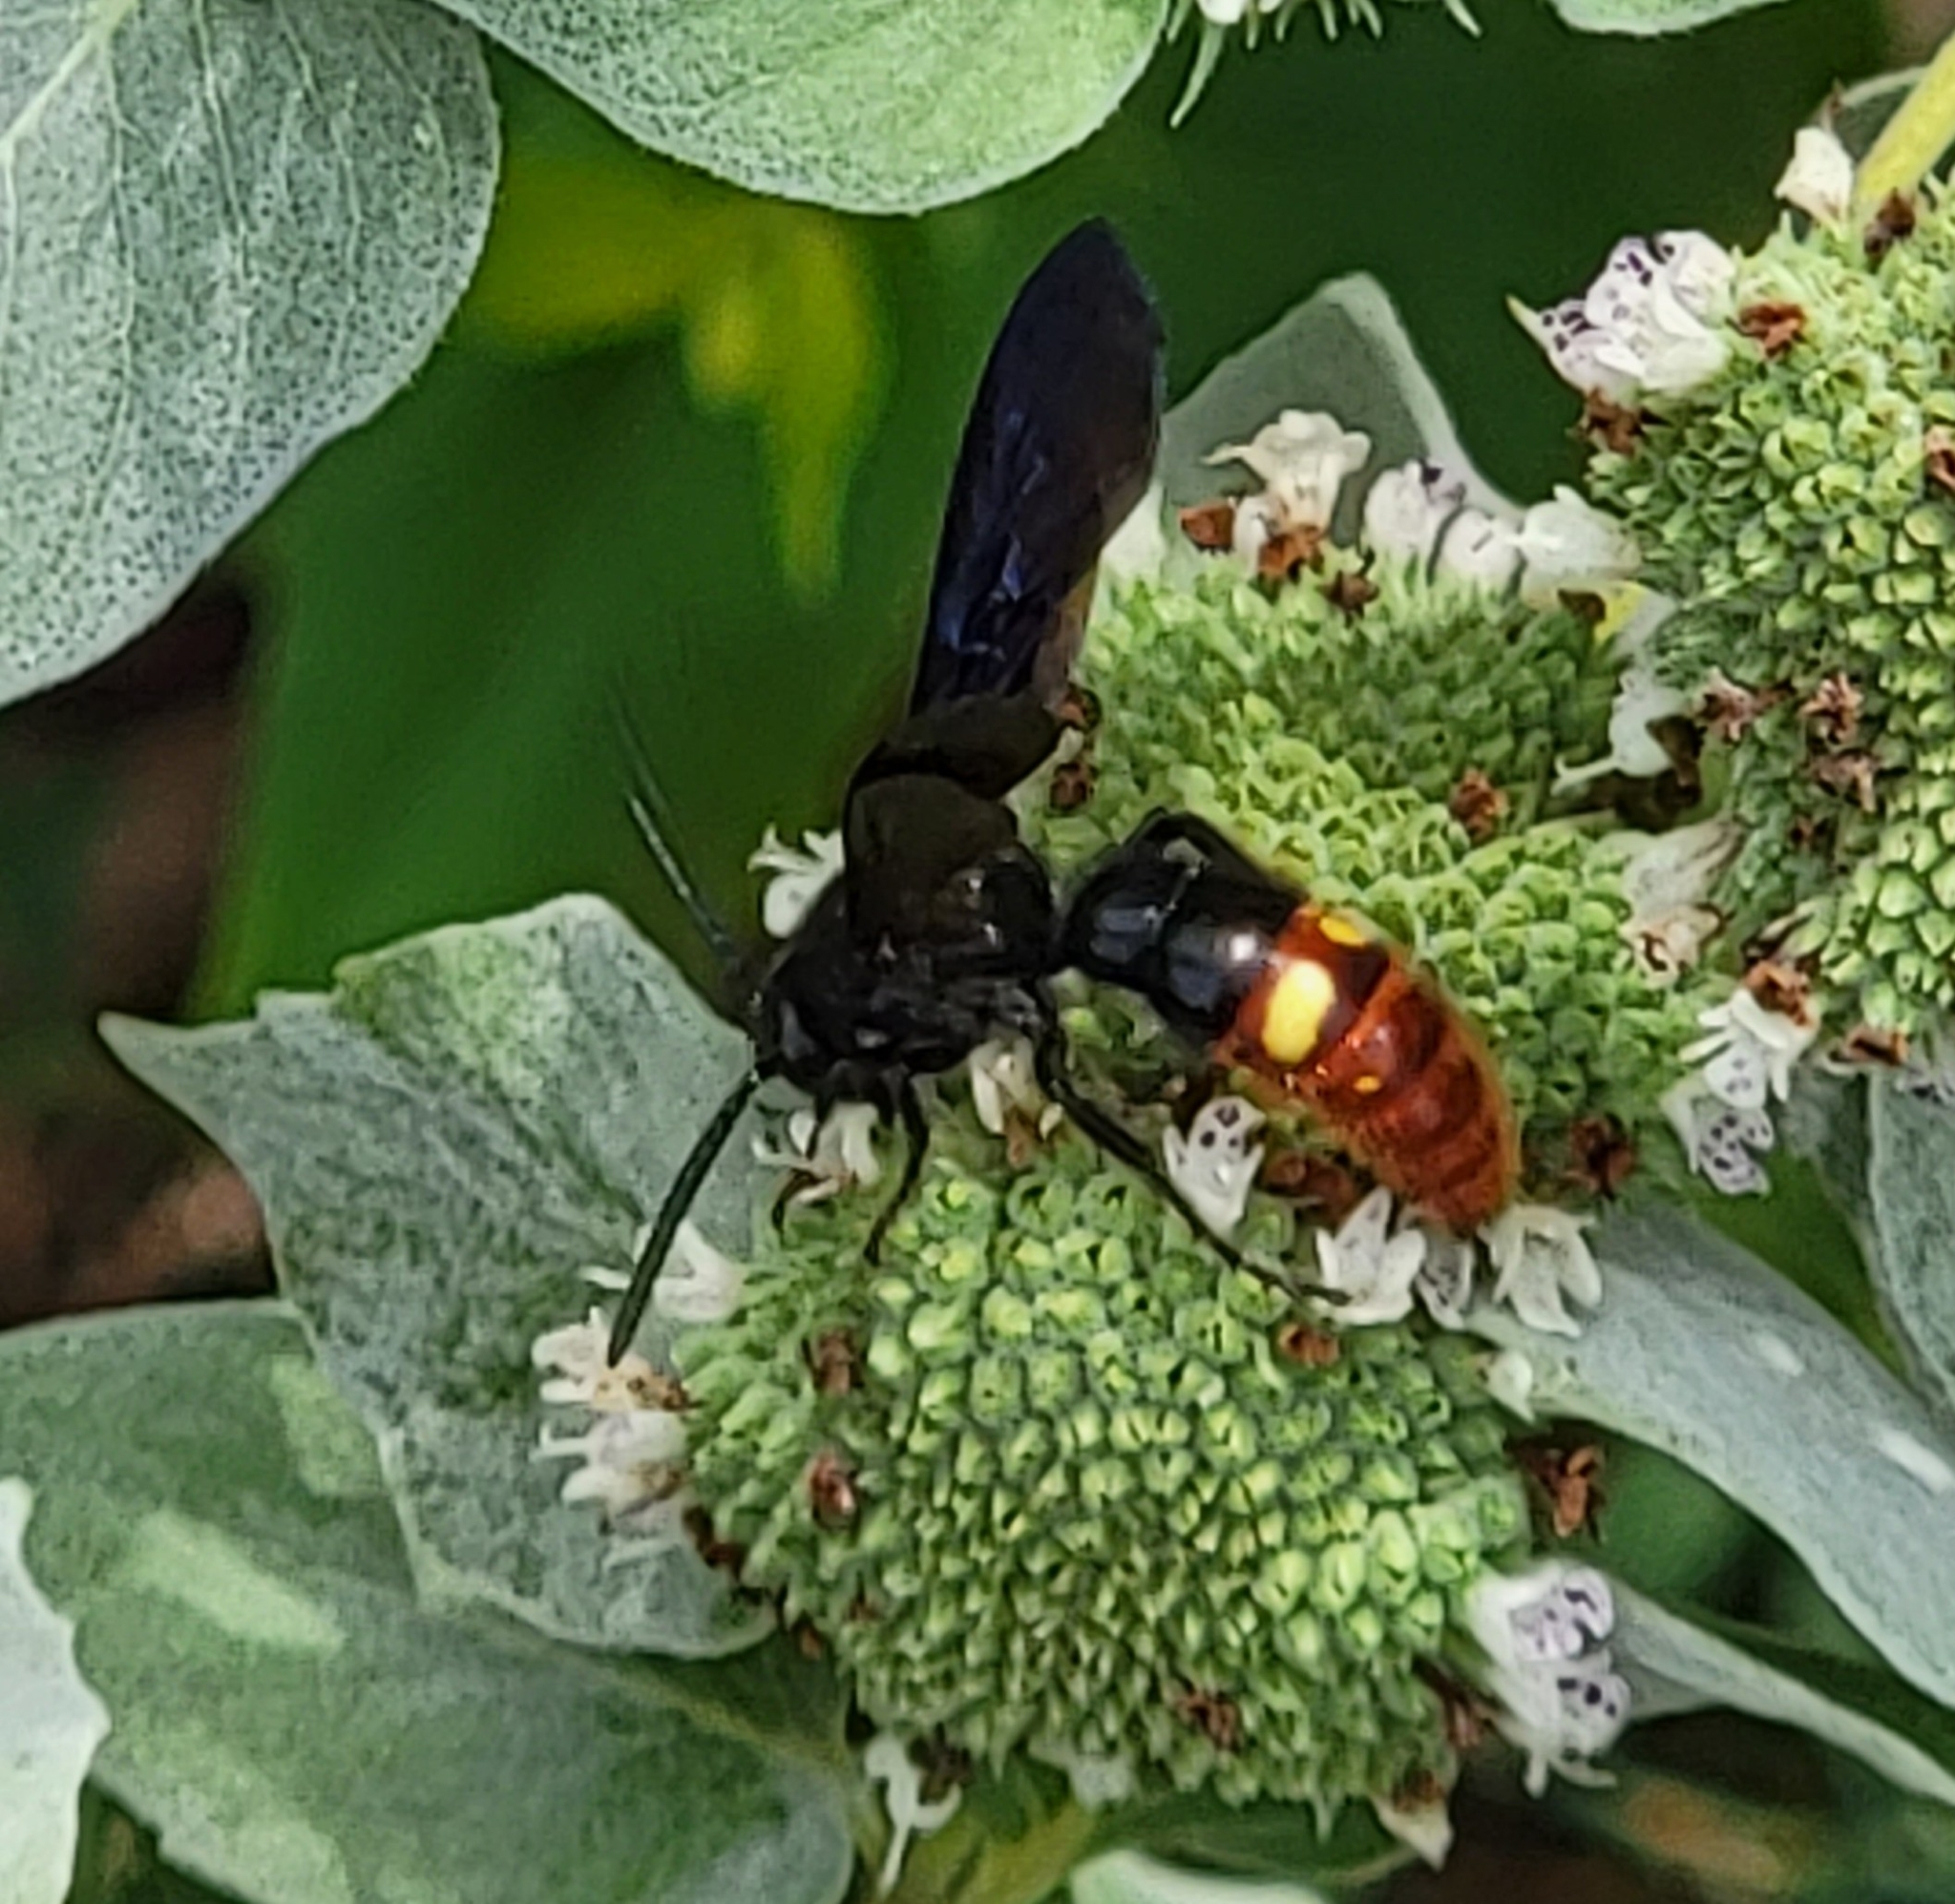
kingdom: Animalia
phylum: Arthropoda
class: Insecta
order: Hymenoptera
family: Scoliidae
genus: Scolia
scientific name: Scolia dubia
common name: Blue-winged scoliid wasp
